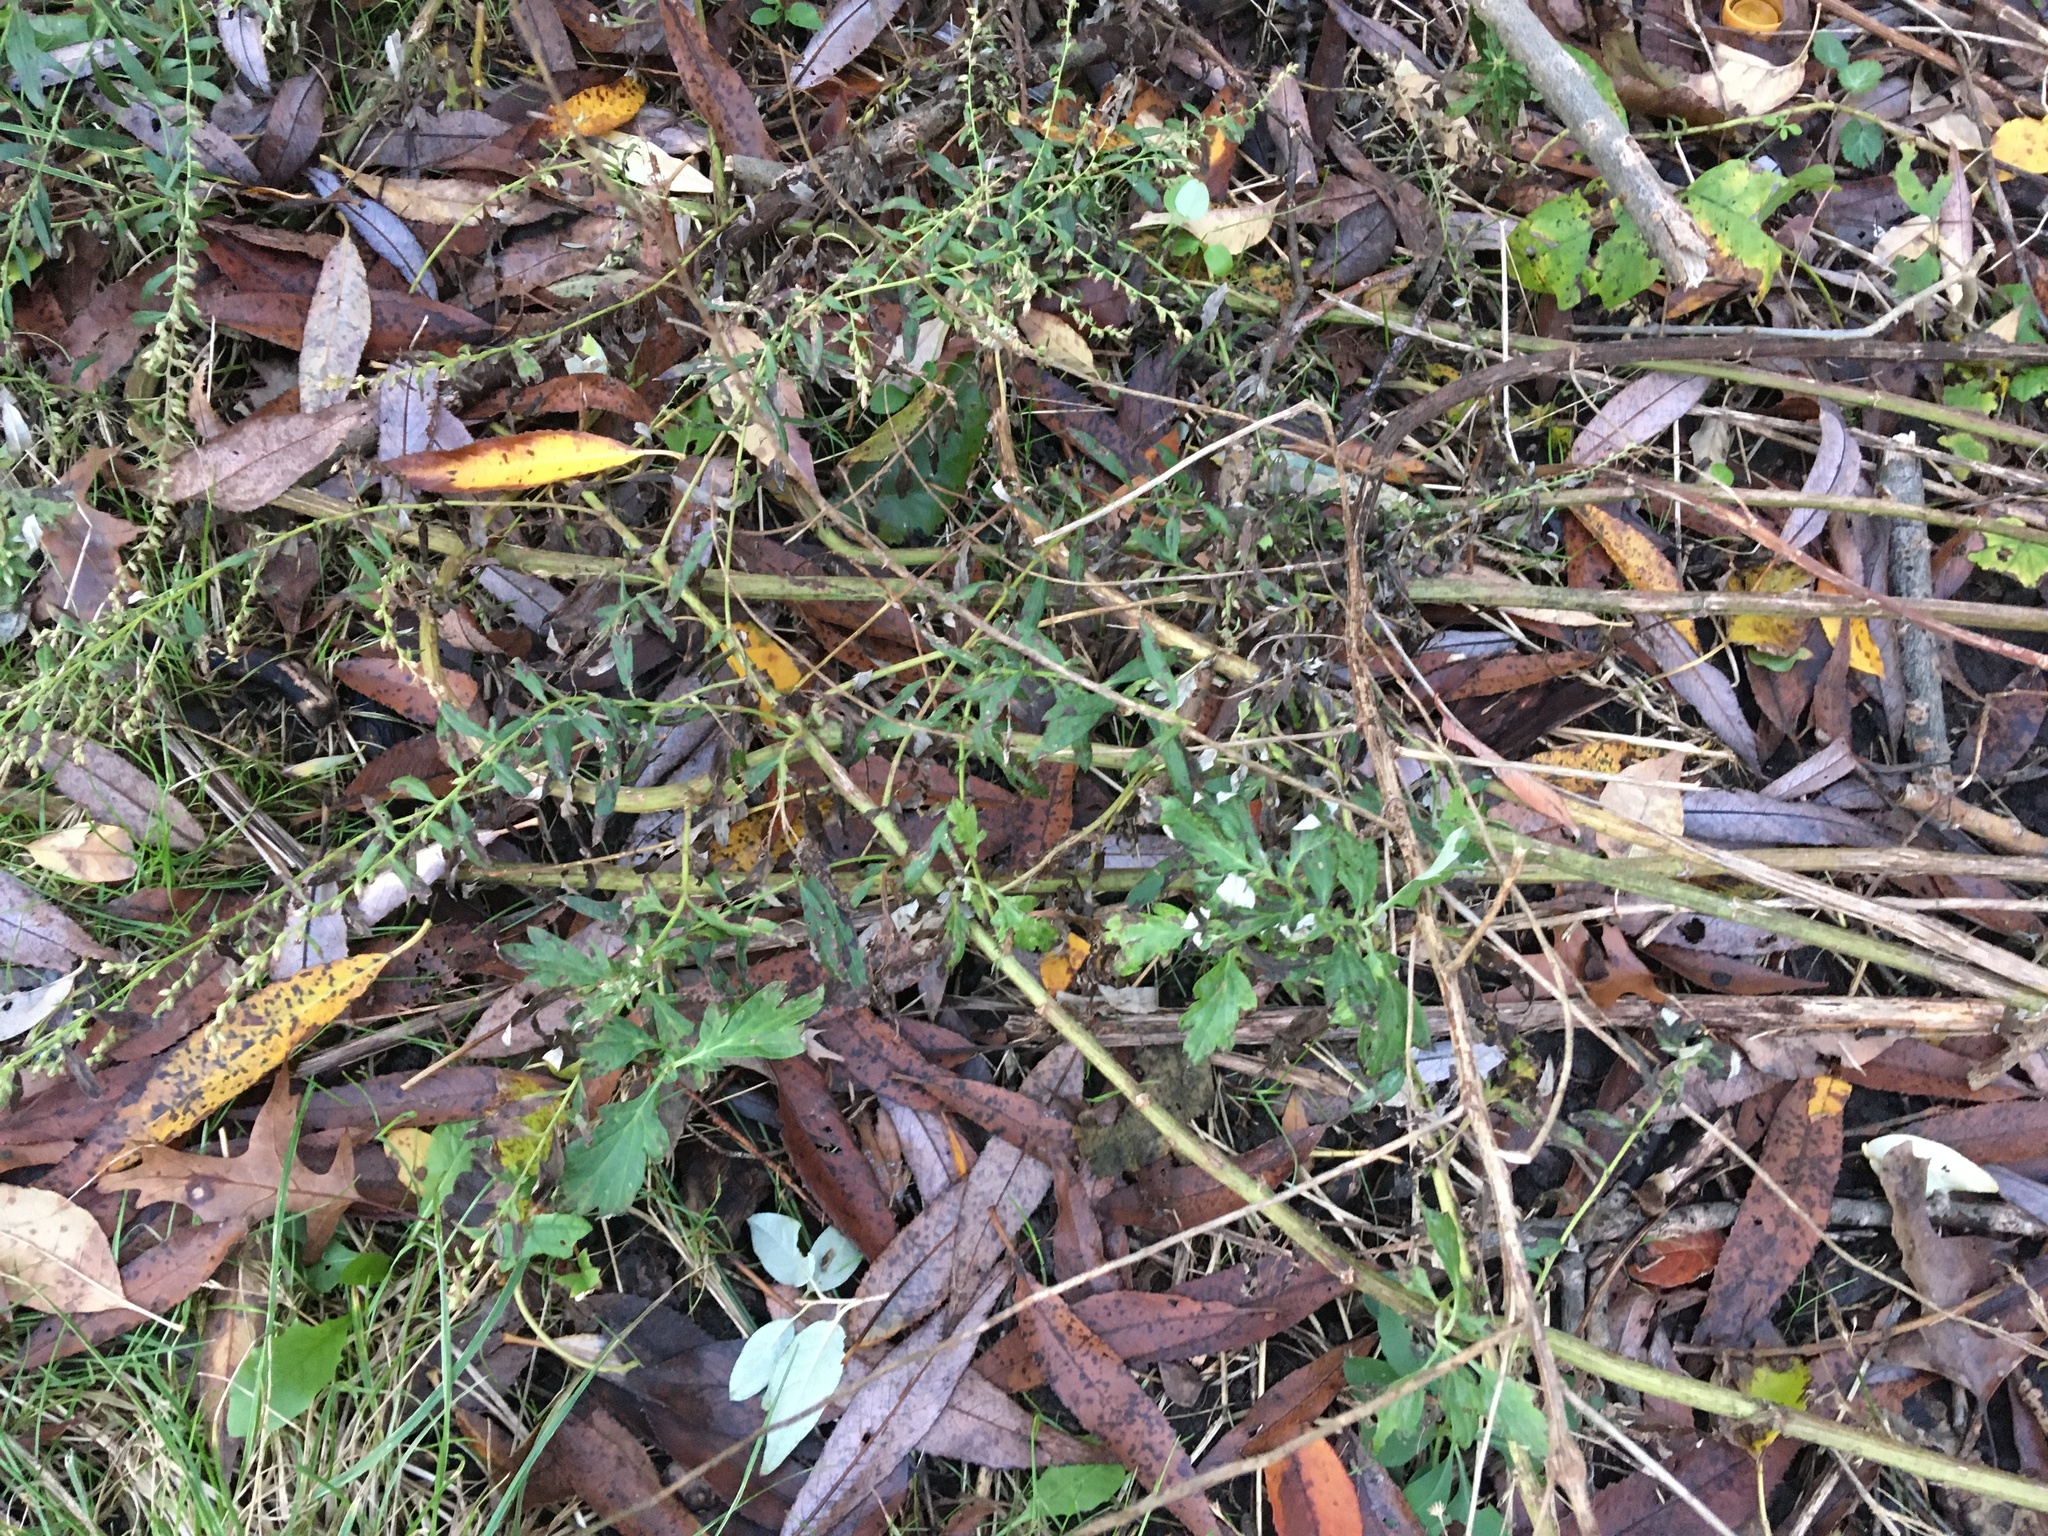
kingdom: Plantae
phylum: Tracheophyta
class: Magnoliopsida
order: Asterales
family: Asteraceae
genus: Artemisia
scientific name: Artemisia vulgaris
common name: Mugwort
